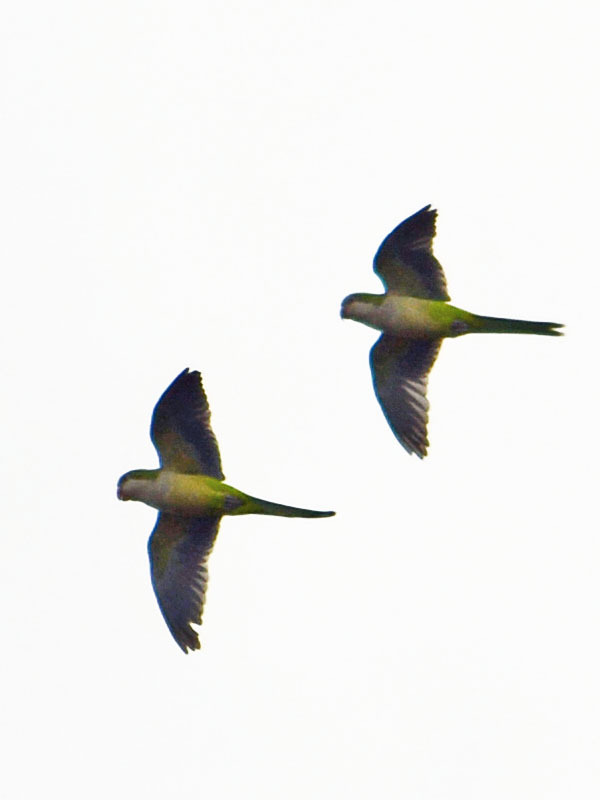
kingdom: Animalia
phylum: Chordata
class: Aves
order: Psittaciformes
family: Psittacidae
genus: Myiopsitta
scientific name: Myiopsitta monachus
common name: Monk parakeet
